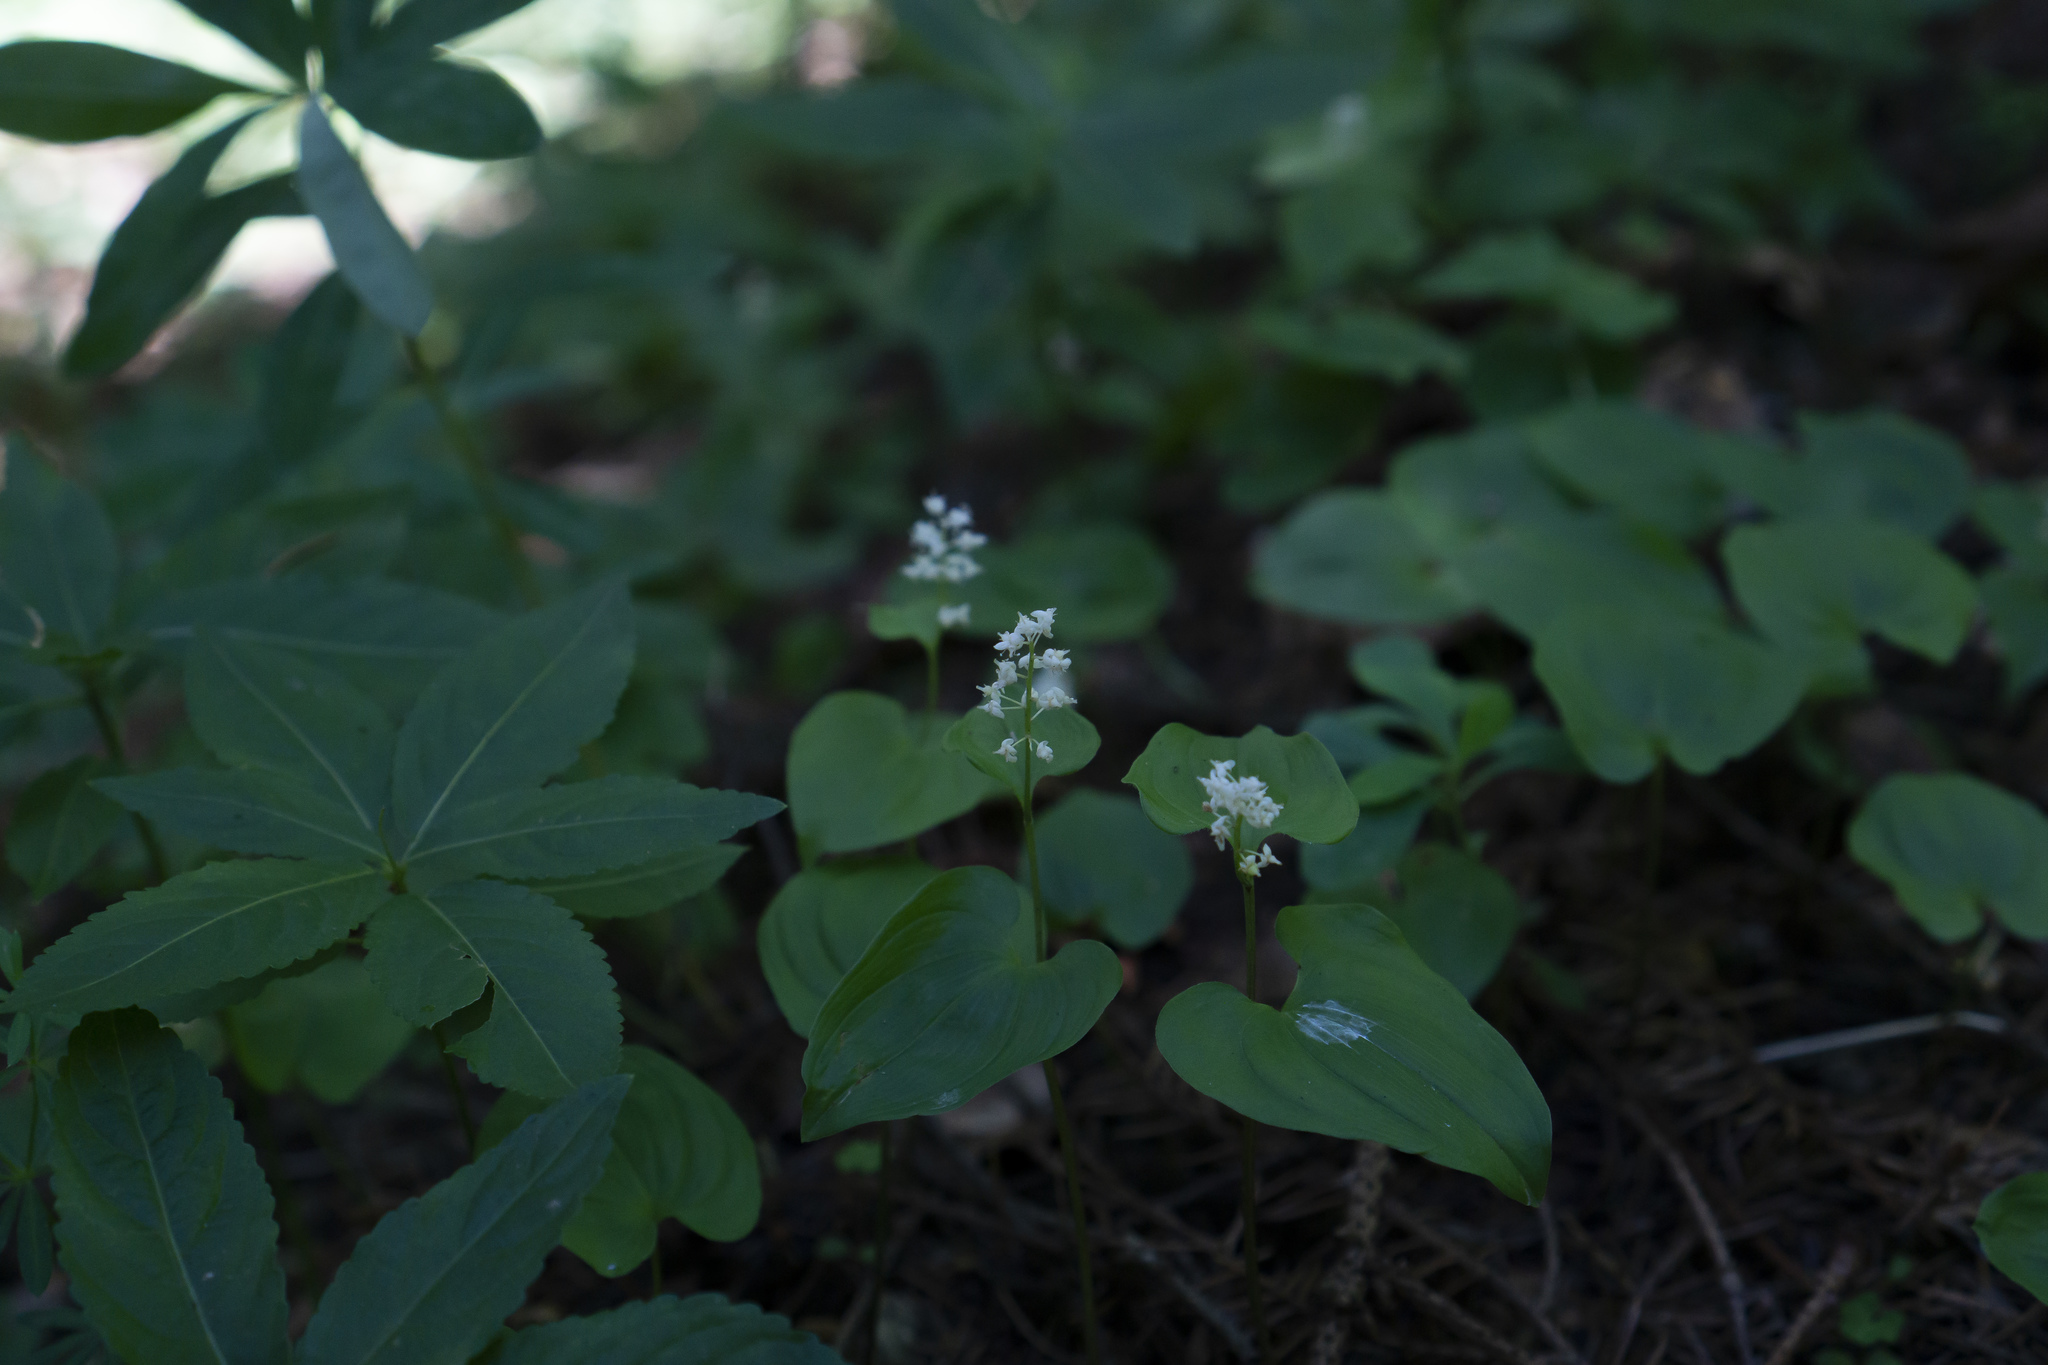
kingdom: Plantae
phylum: Tracheophyta
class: Liliopsida
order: Asparagales
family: Asparagaceae
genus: Maianthemum
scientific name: Maianthemum bifolium
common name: May lily
